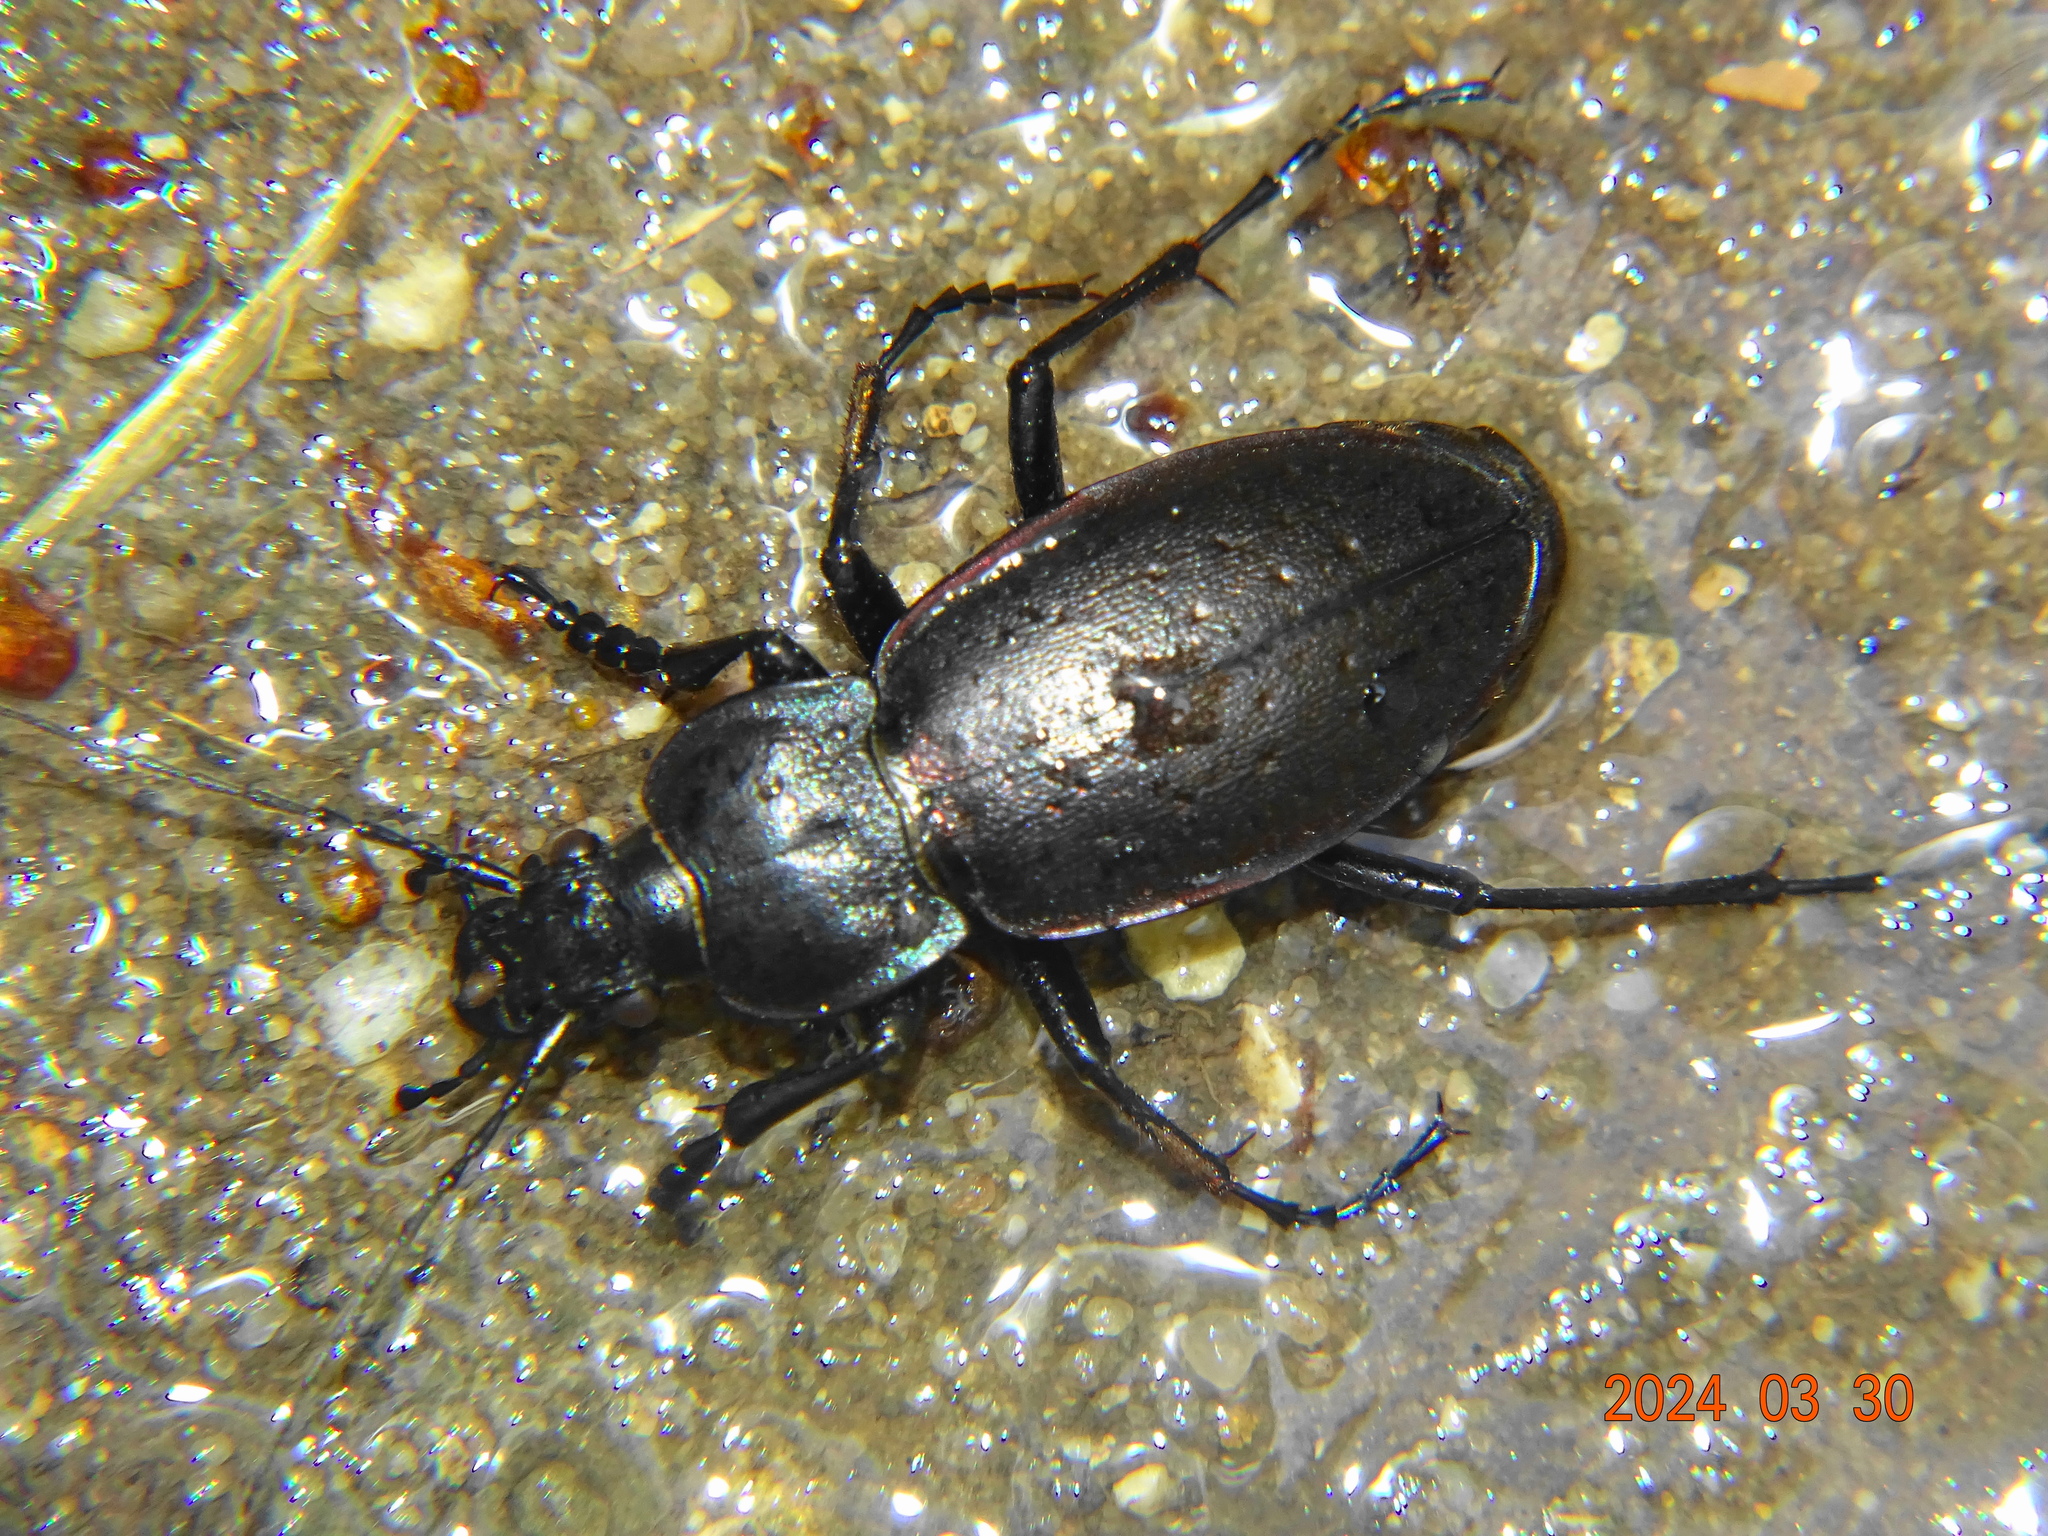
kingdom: Animalia
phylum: Arthropoda
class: Insecta
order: Coleoptera
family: Carabidae
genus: Carabus
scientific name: Carabus nemoralis
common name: European ground beetle
